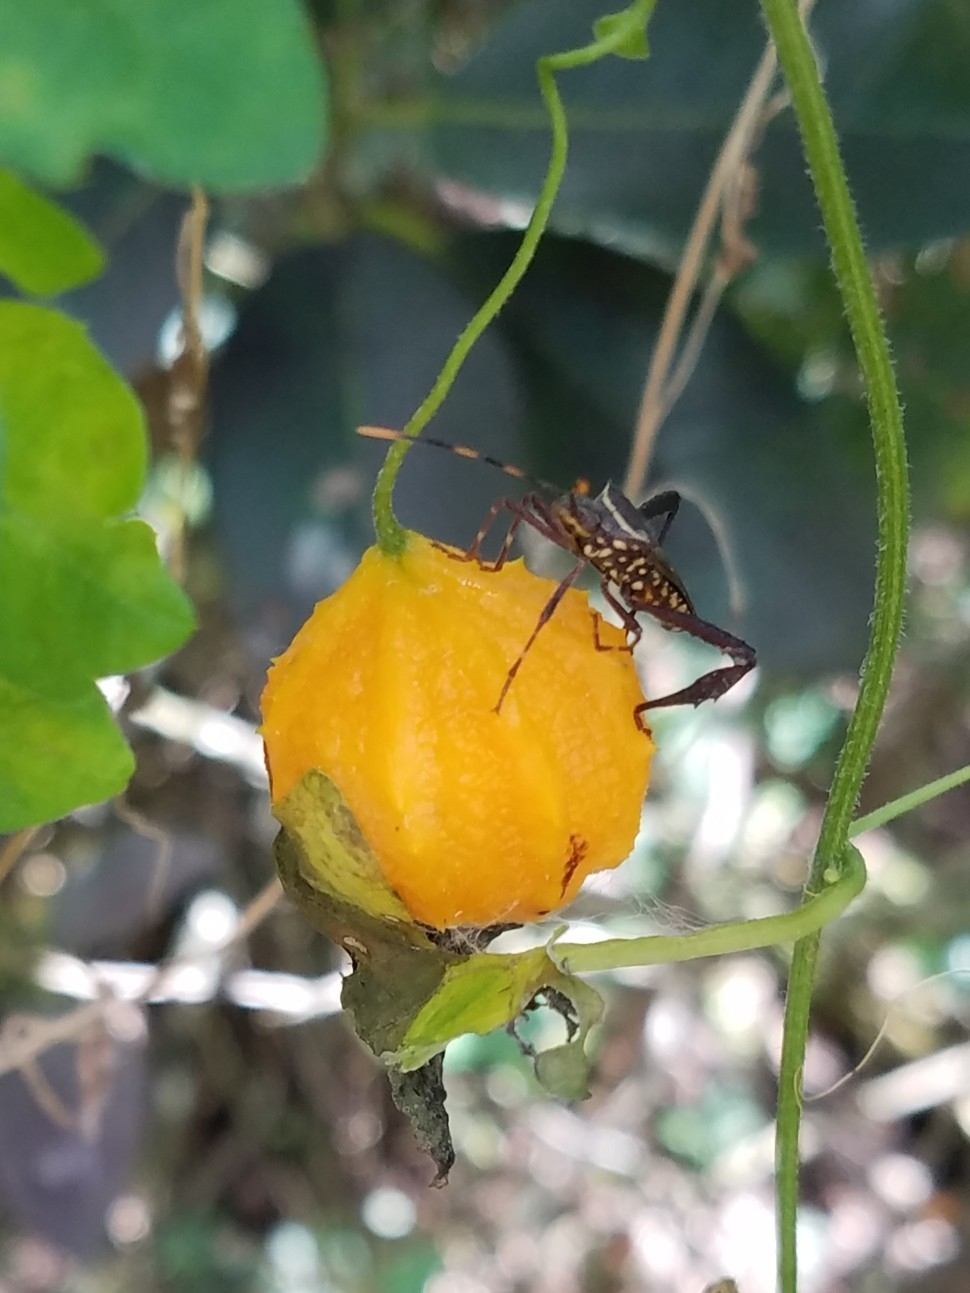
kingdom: Animalia
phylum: Arthropoda
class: Insecta
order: Hemiptera
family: Coreidae
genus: Leptoglossus
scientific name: Leptoglossus gonagra
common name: Citron bug
